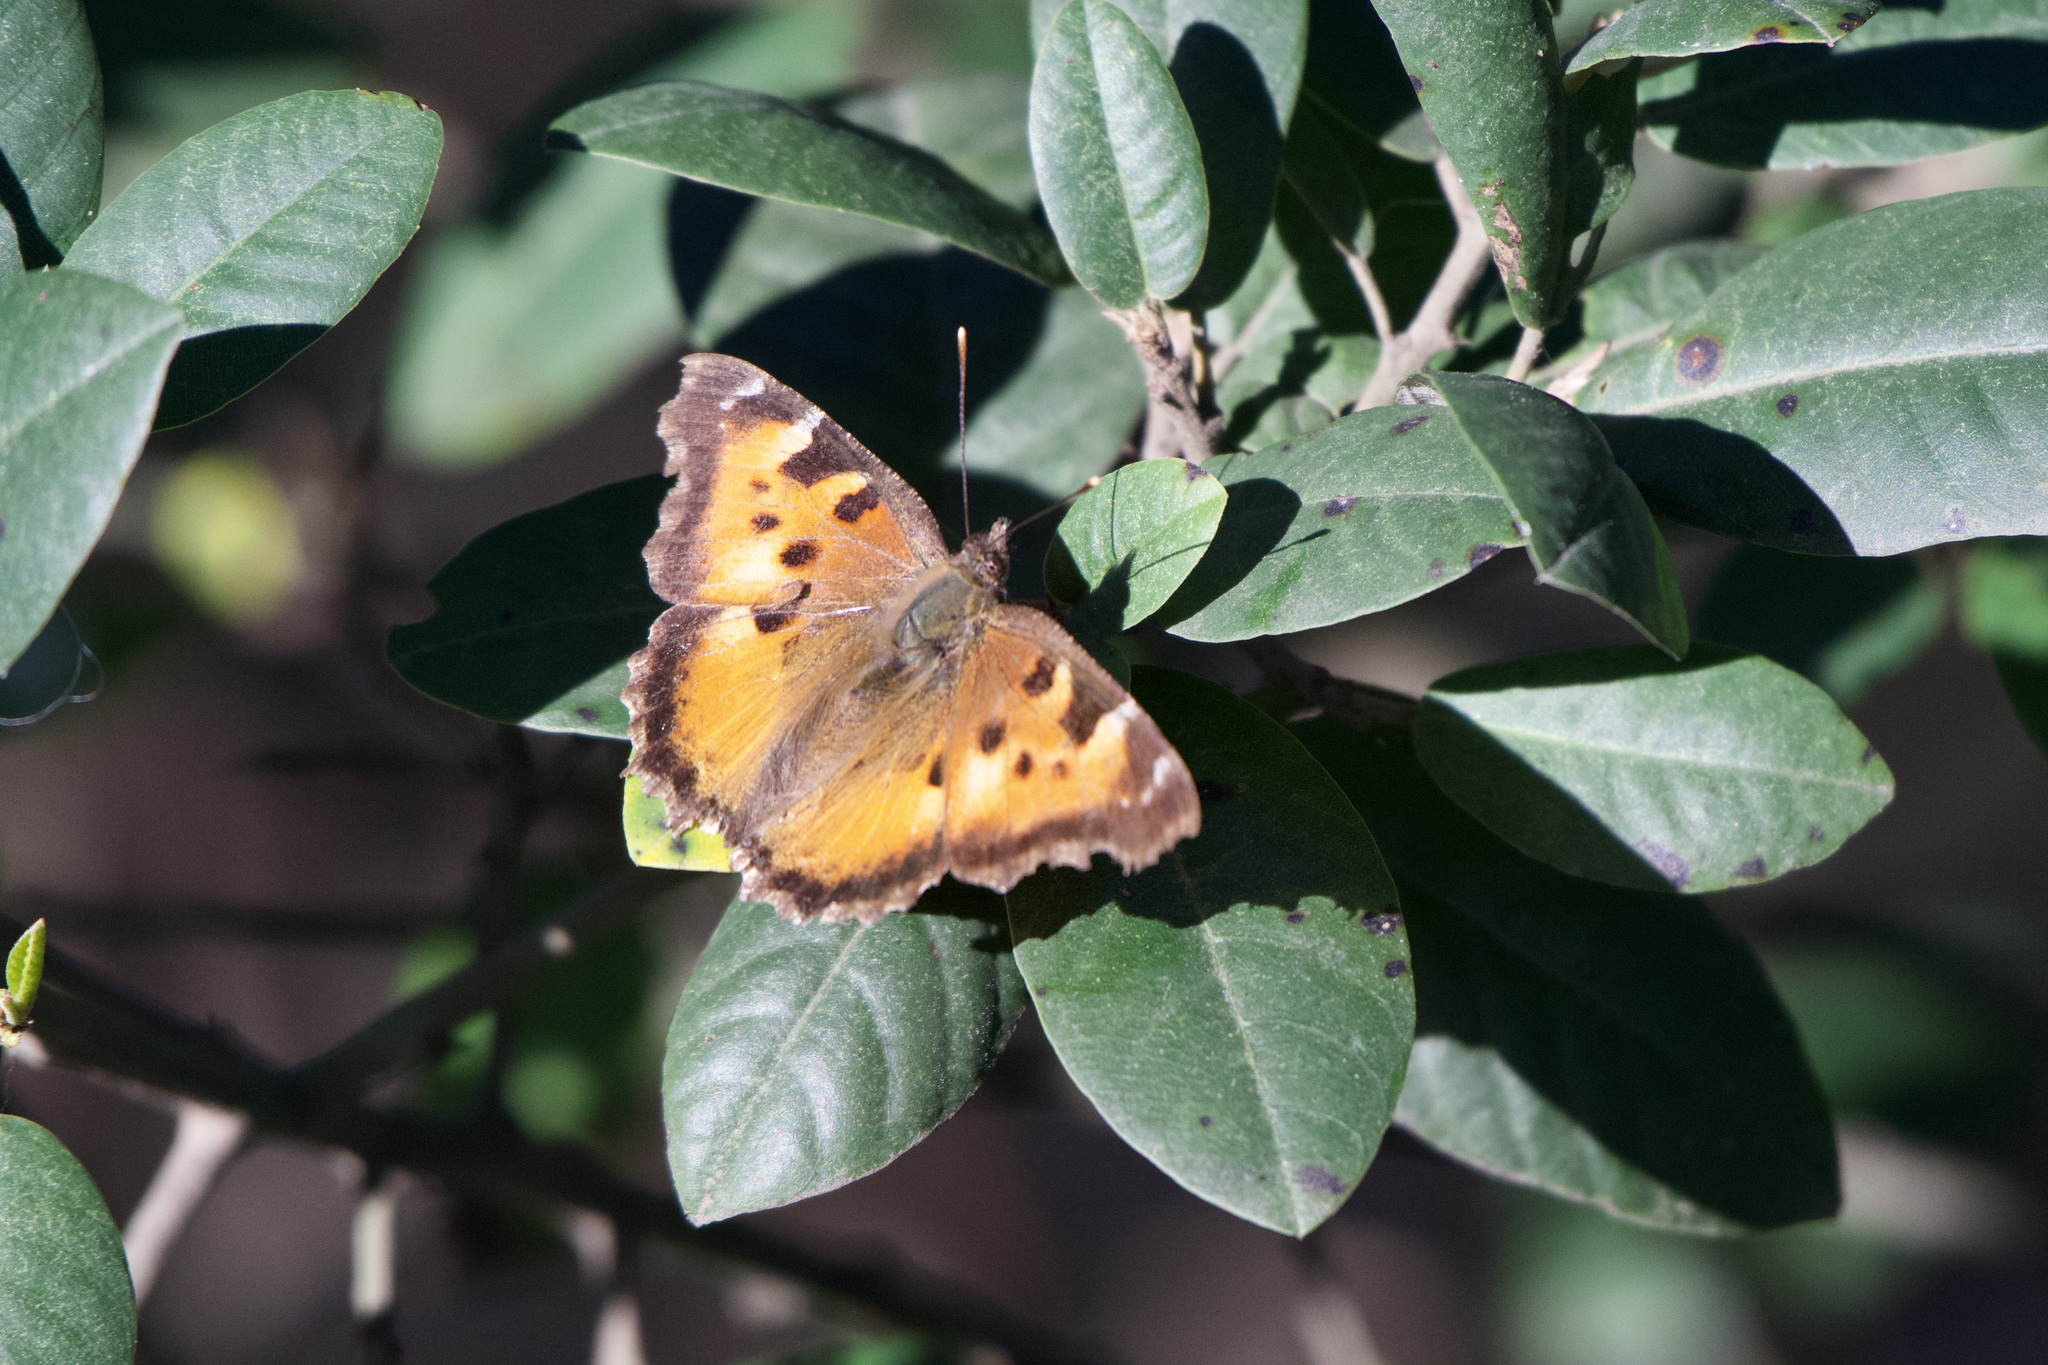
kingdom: Animalia
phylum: Arthropoda
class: Insecta
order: Lepidoptera
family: Nymphalidae
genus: Nymphalis
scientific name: Nymphalis californica
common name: California tortoiseshell
